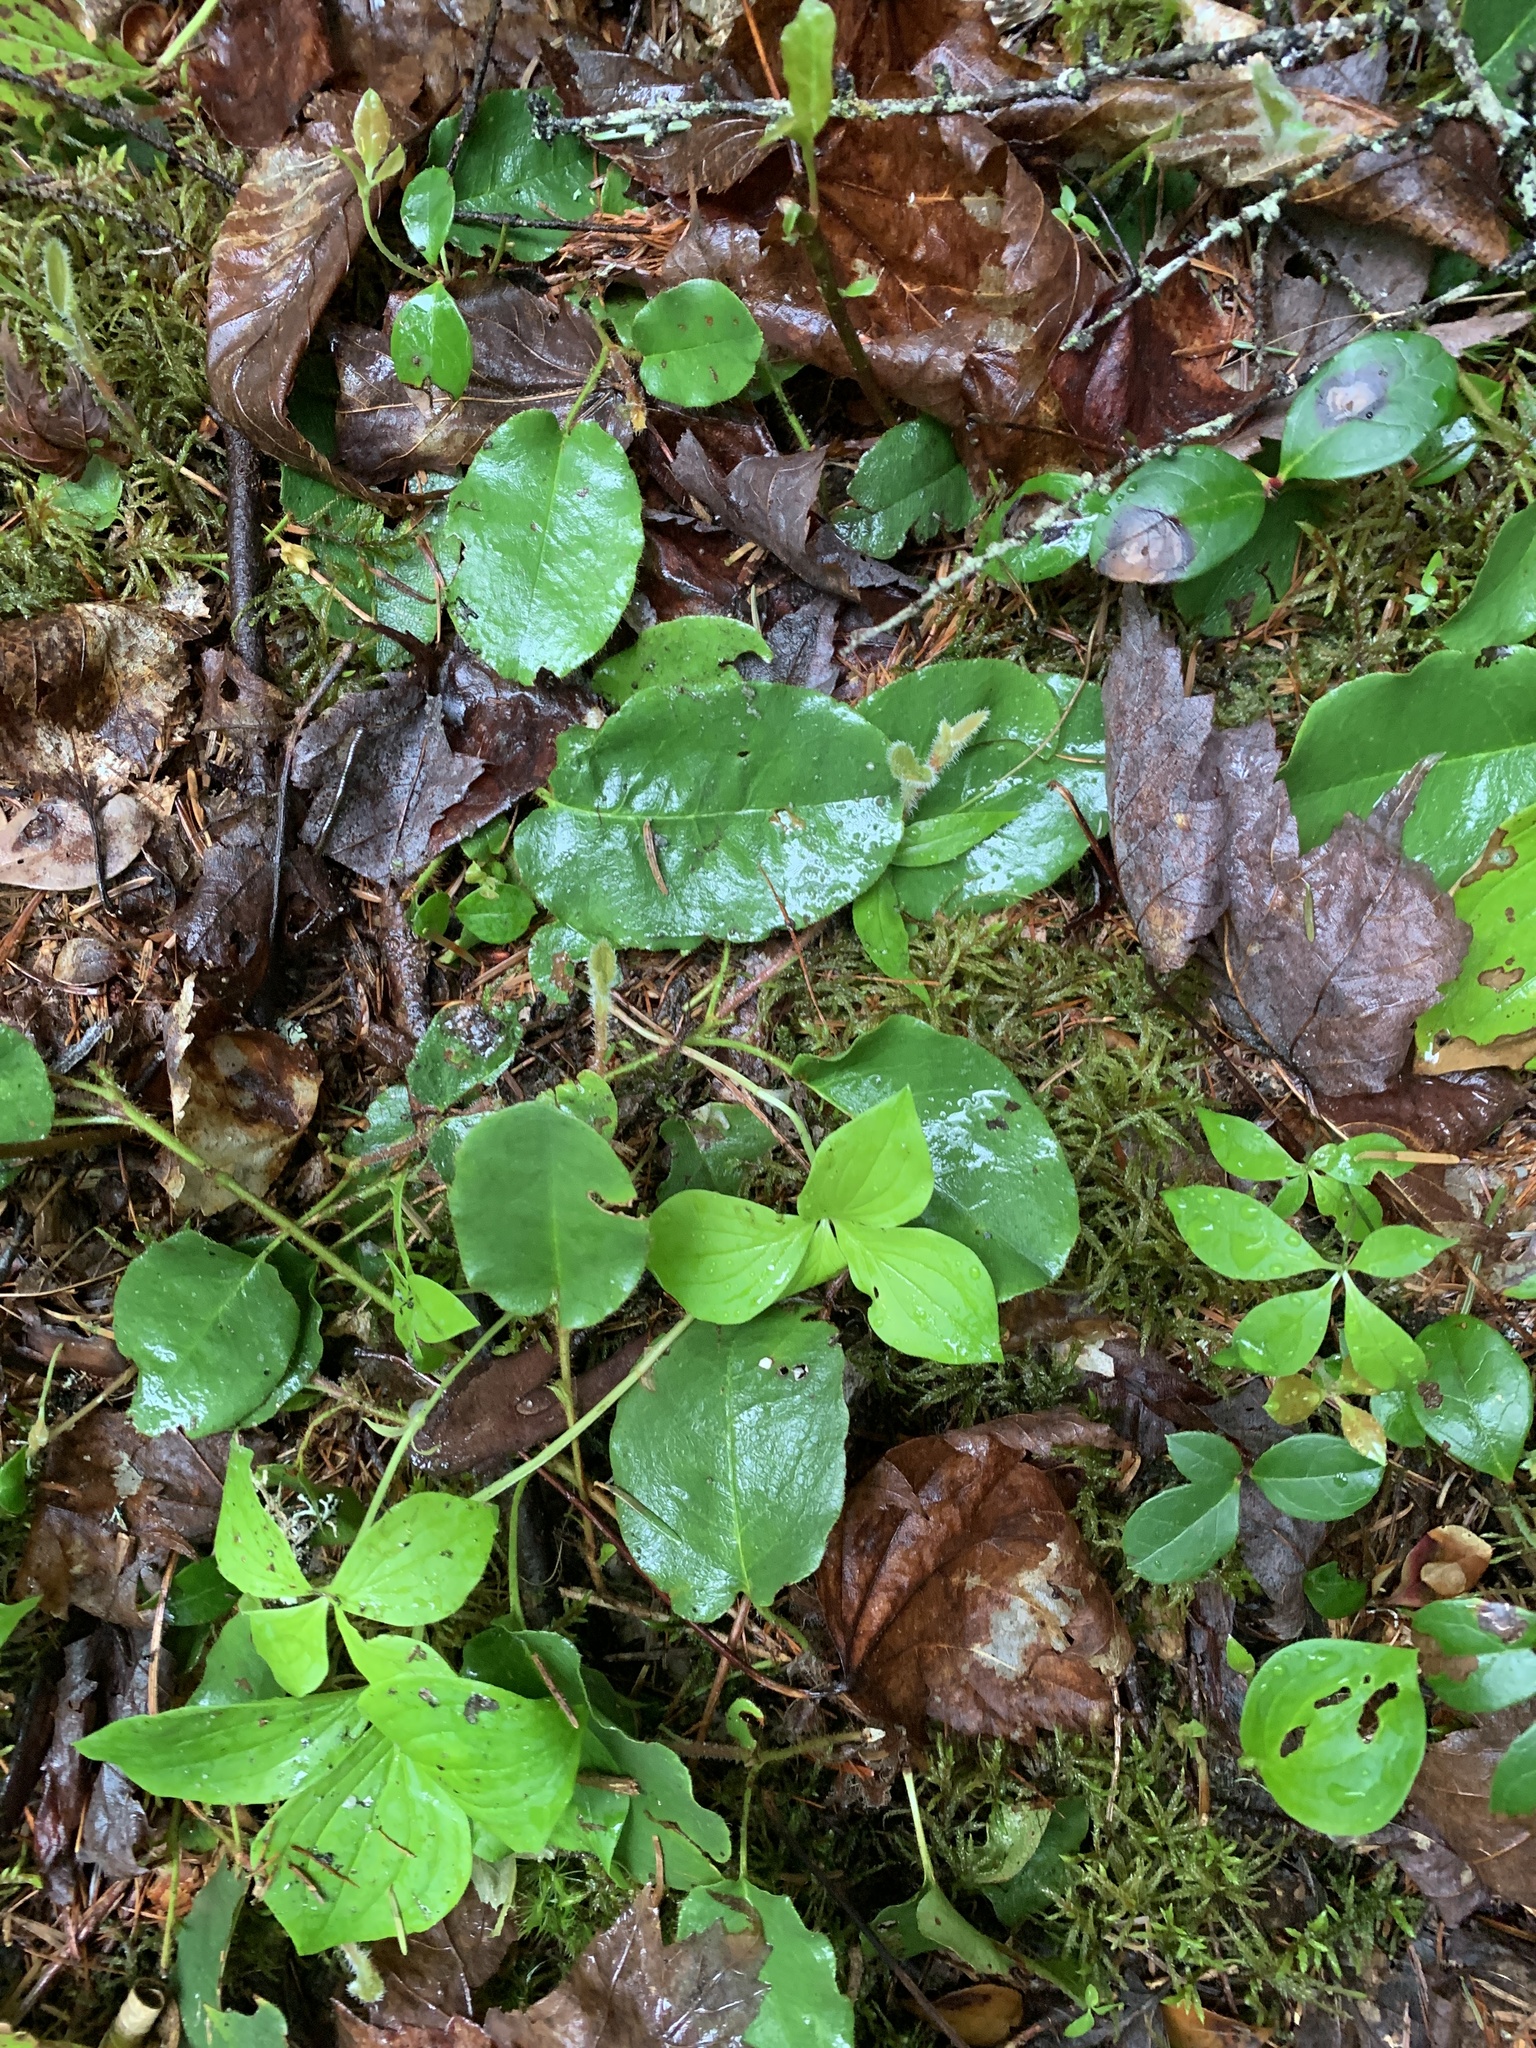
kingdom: Plantae
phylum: Tracheophyta
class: Magnoliopsida
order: Ericales
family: Ericaceae
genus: Epigaea
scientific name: Epigaea repens
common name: Gravelroot
